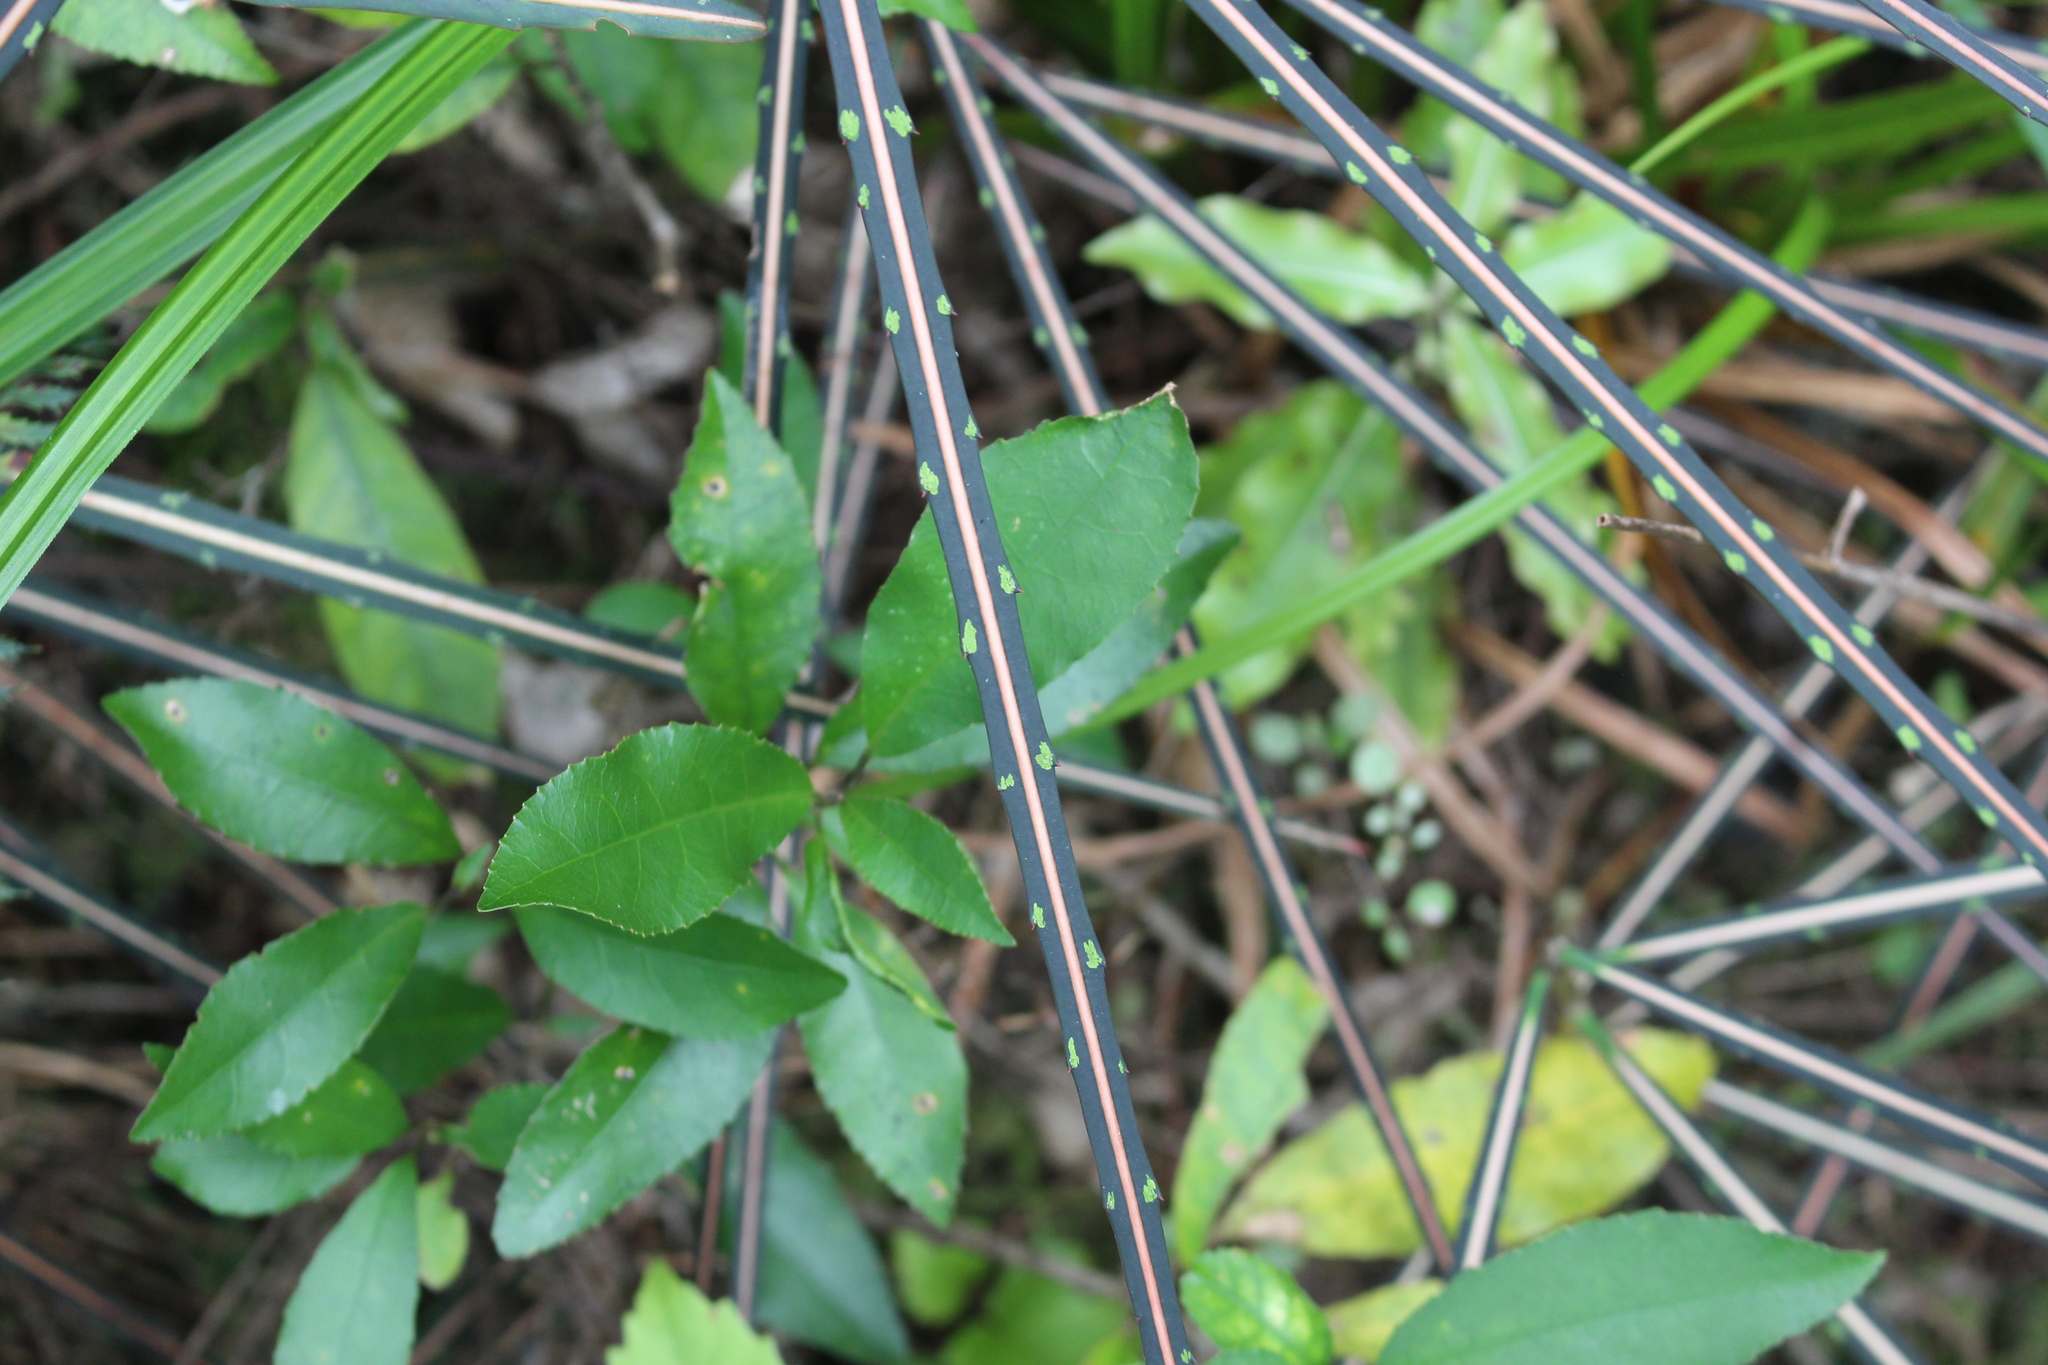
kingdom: Plantae
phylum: Tracheophyta
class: Magnoliopsida
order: Apiales
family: Araliaceae
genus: Pseudopanax
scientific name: Pseudopanax crassifolius
